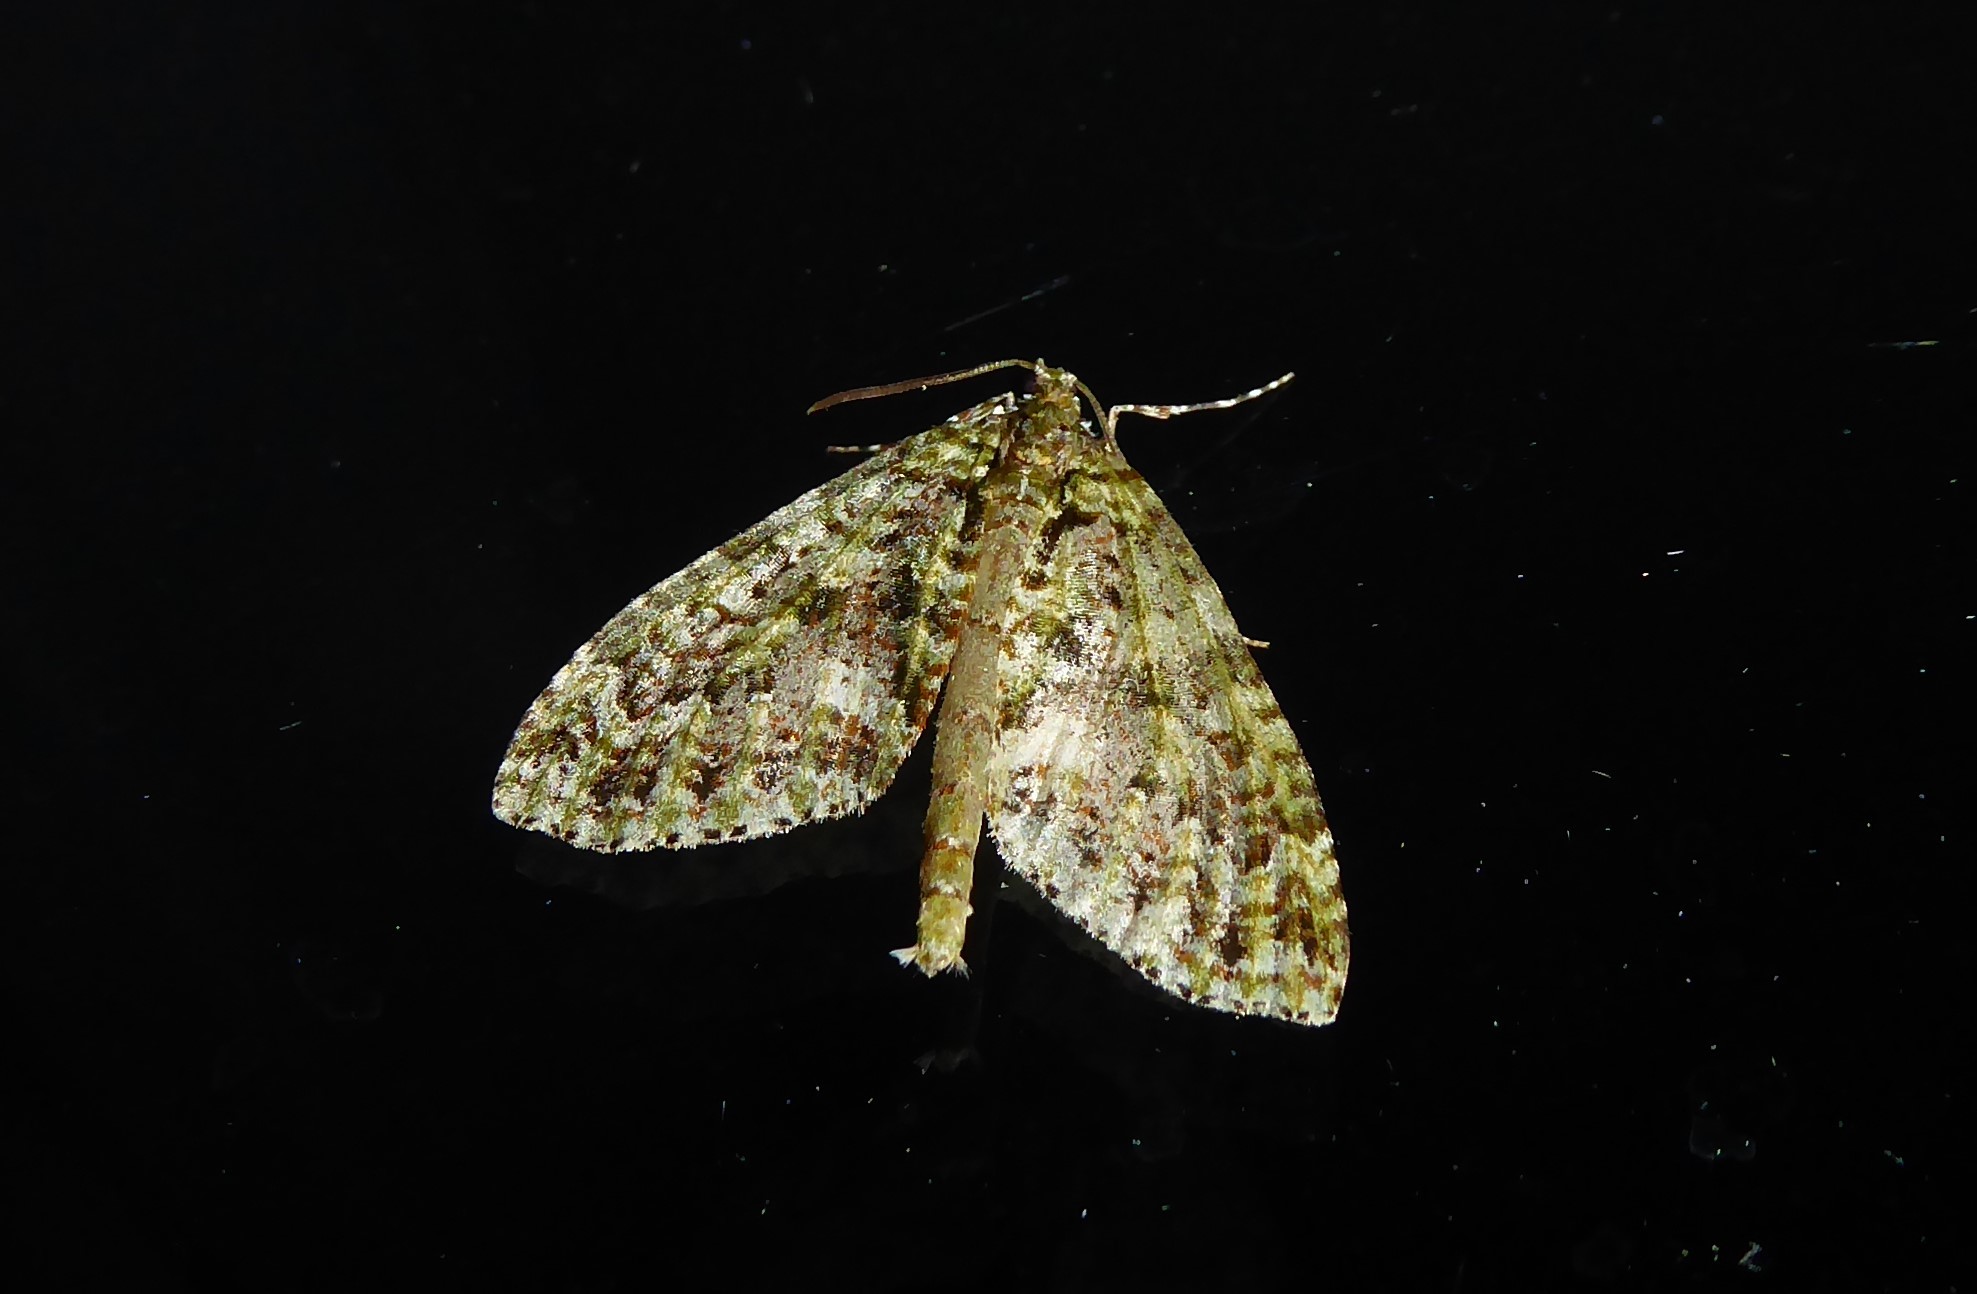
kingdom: Animalia
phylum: Arthropoda
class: Insecta
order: Lepidoptera
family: Geometridae
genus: Tatosoma
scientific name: Tatosoma agrionata
